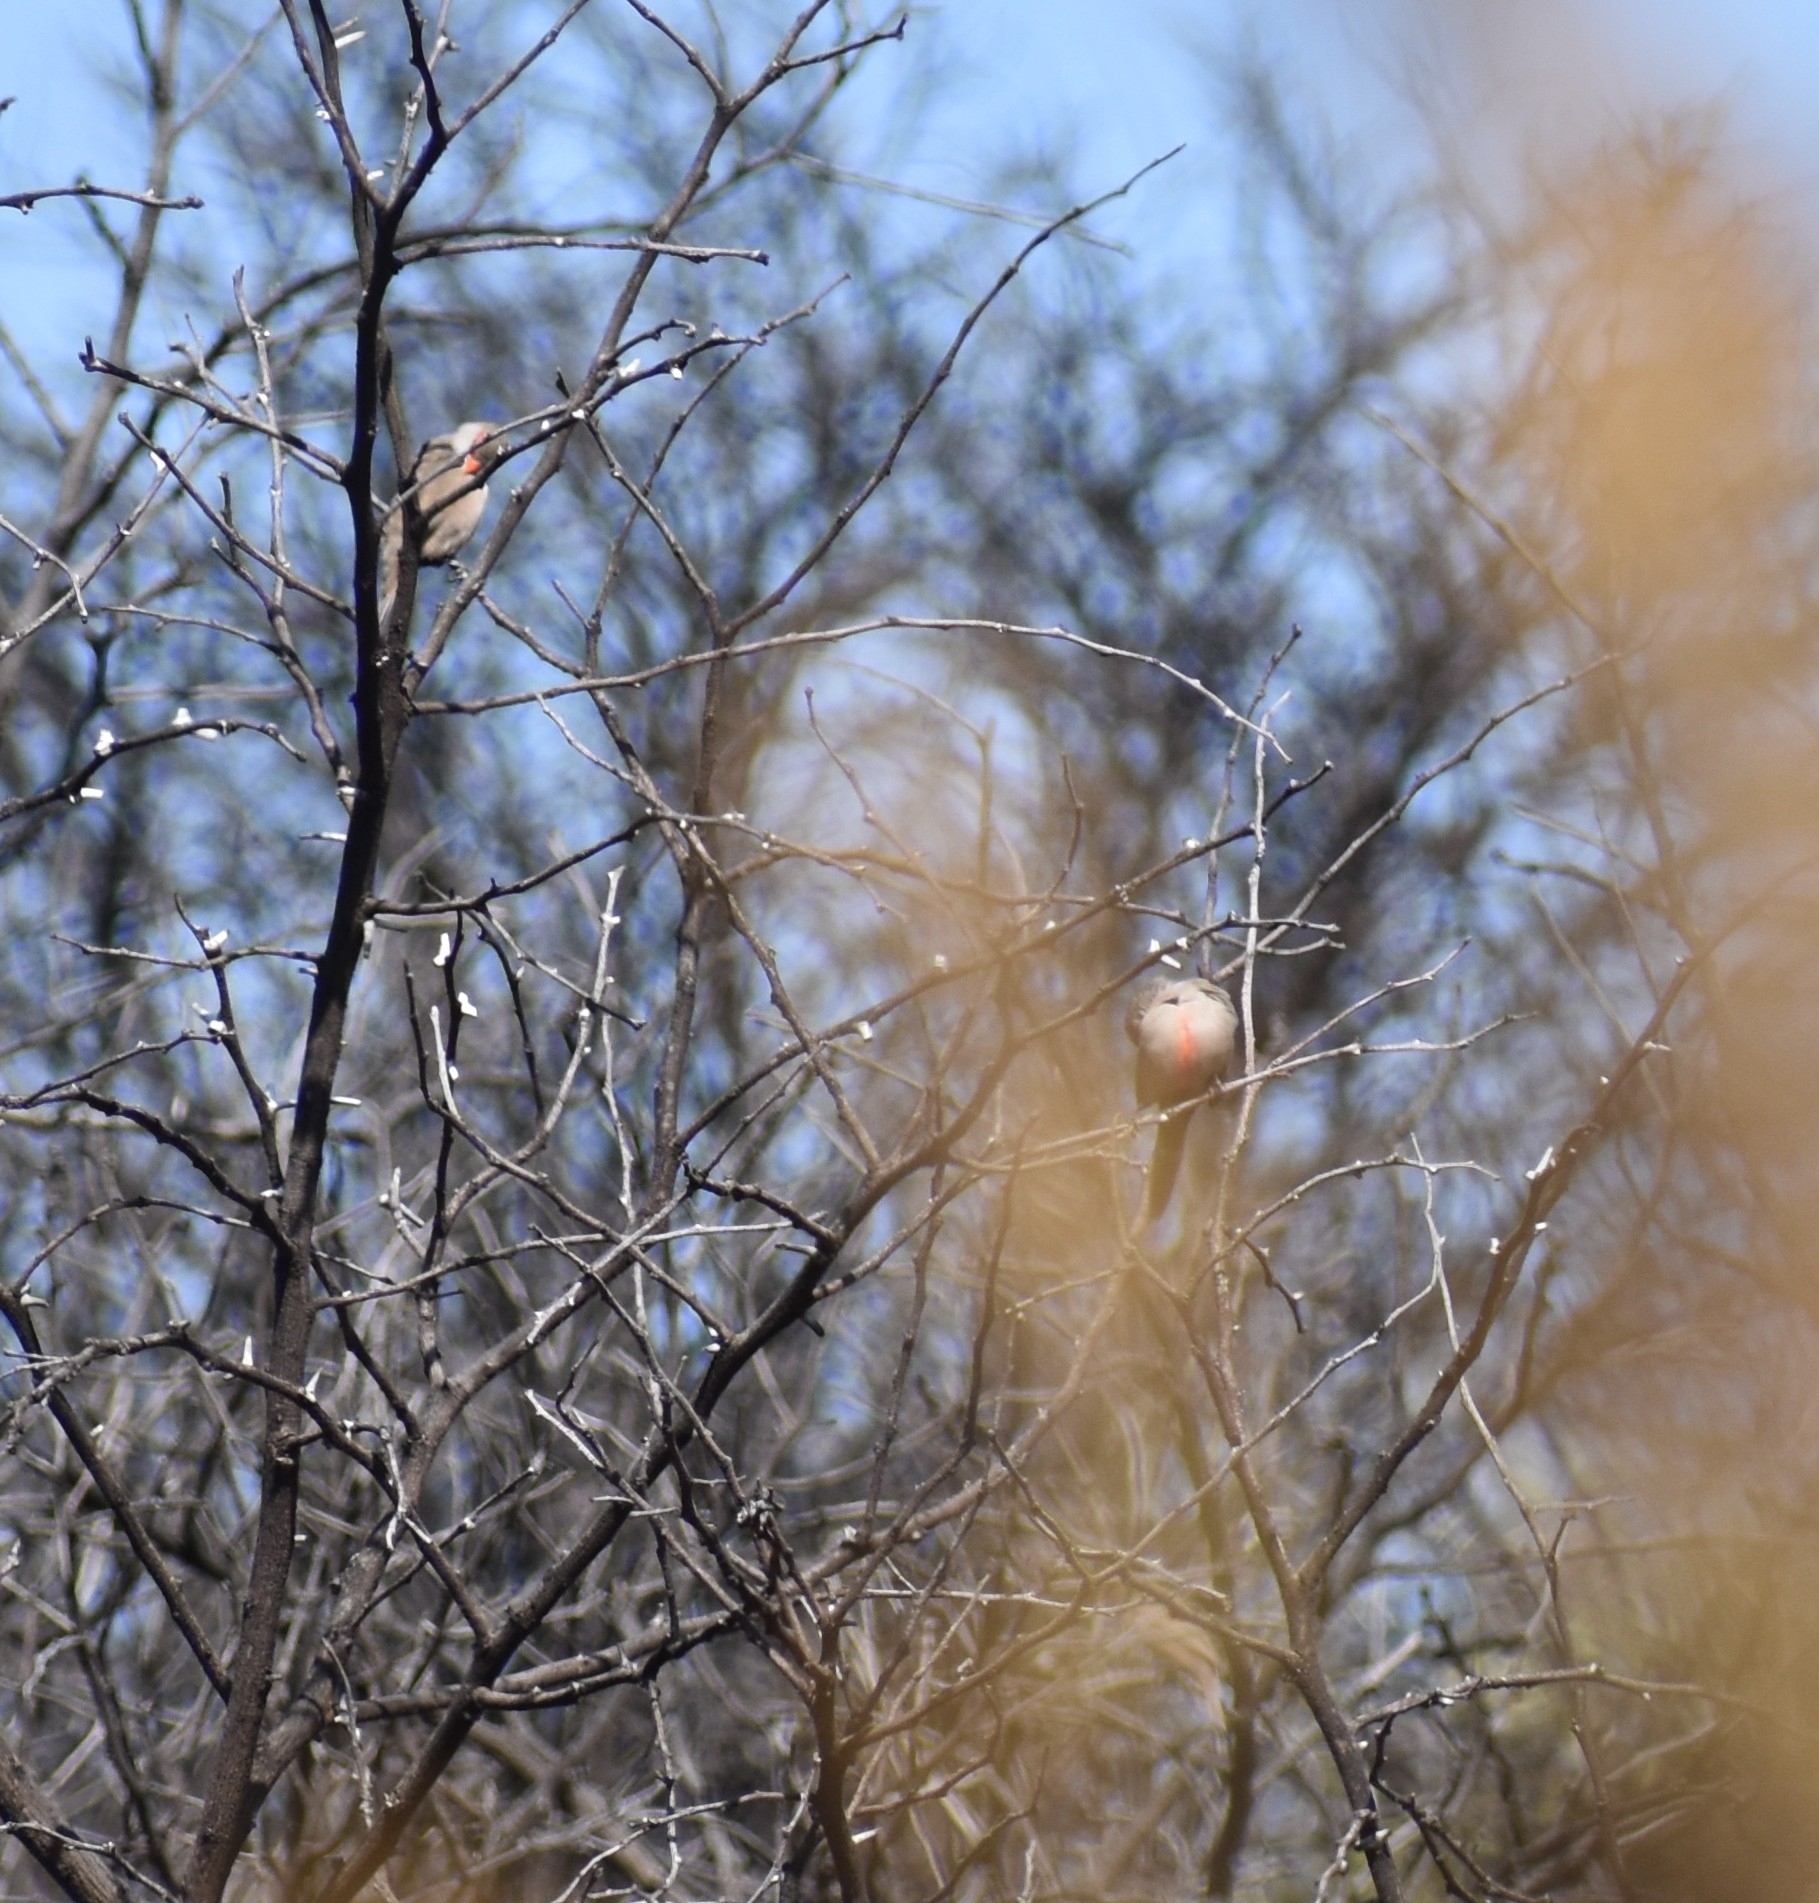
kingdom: Animalia
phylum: Chordata
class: Aves
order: Passeriformes
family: Estrildidae
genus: Estrilda
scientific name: Estrilda astrild
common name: Common waxbill
